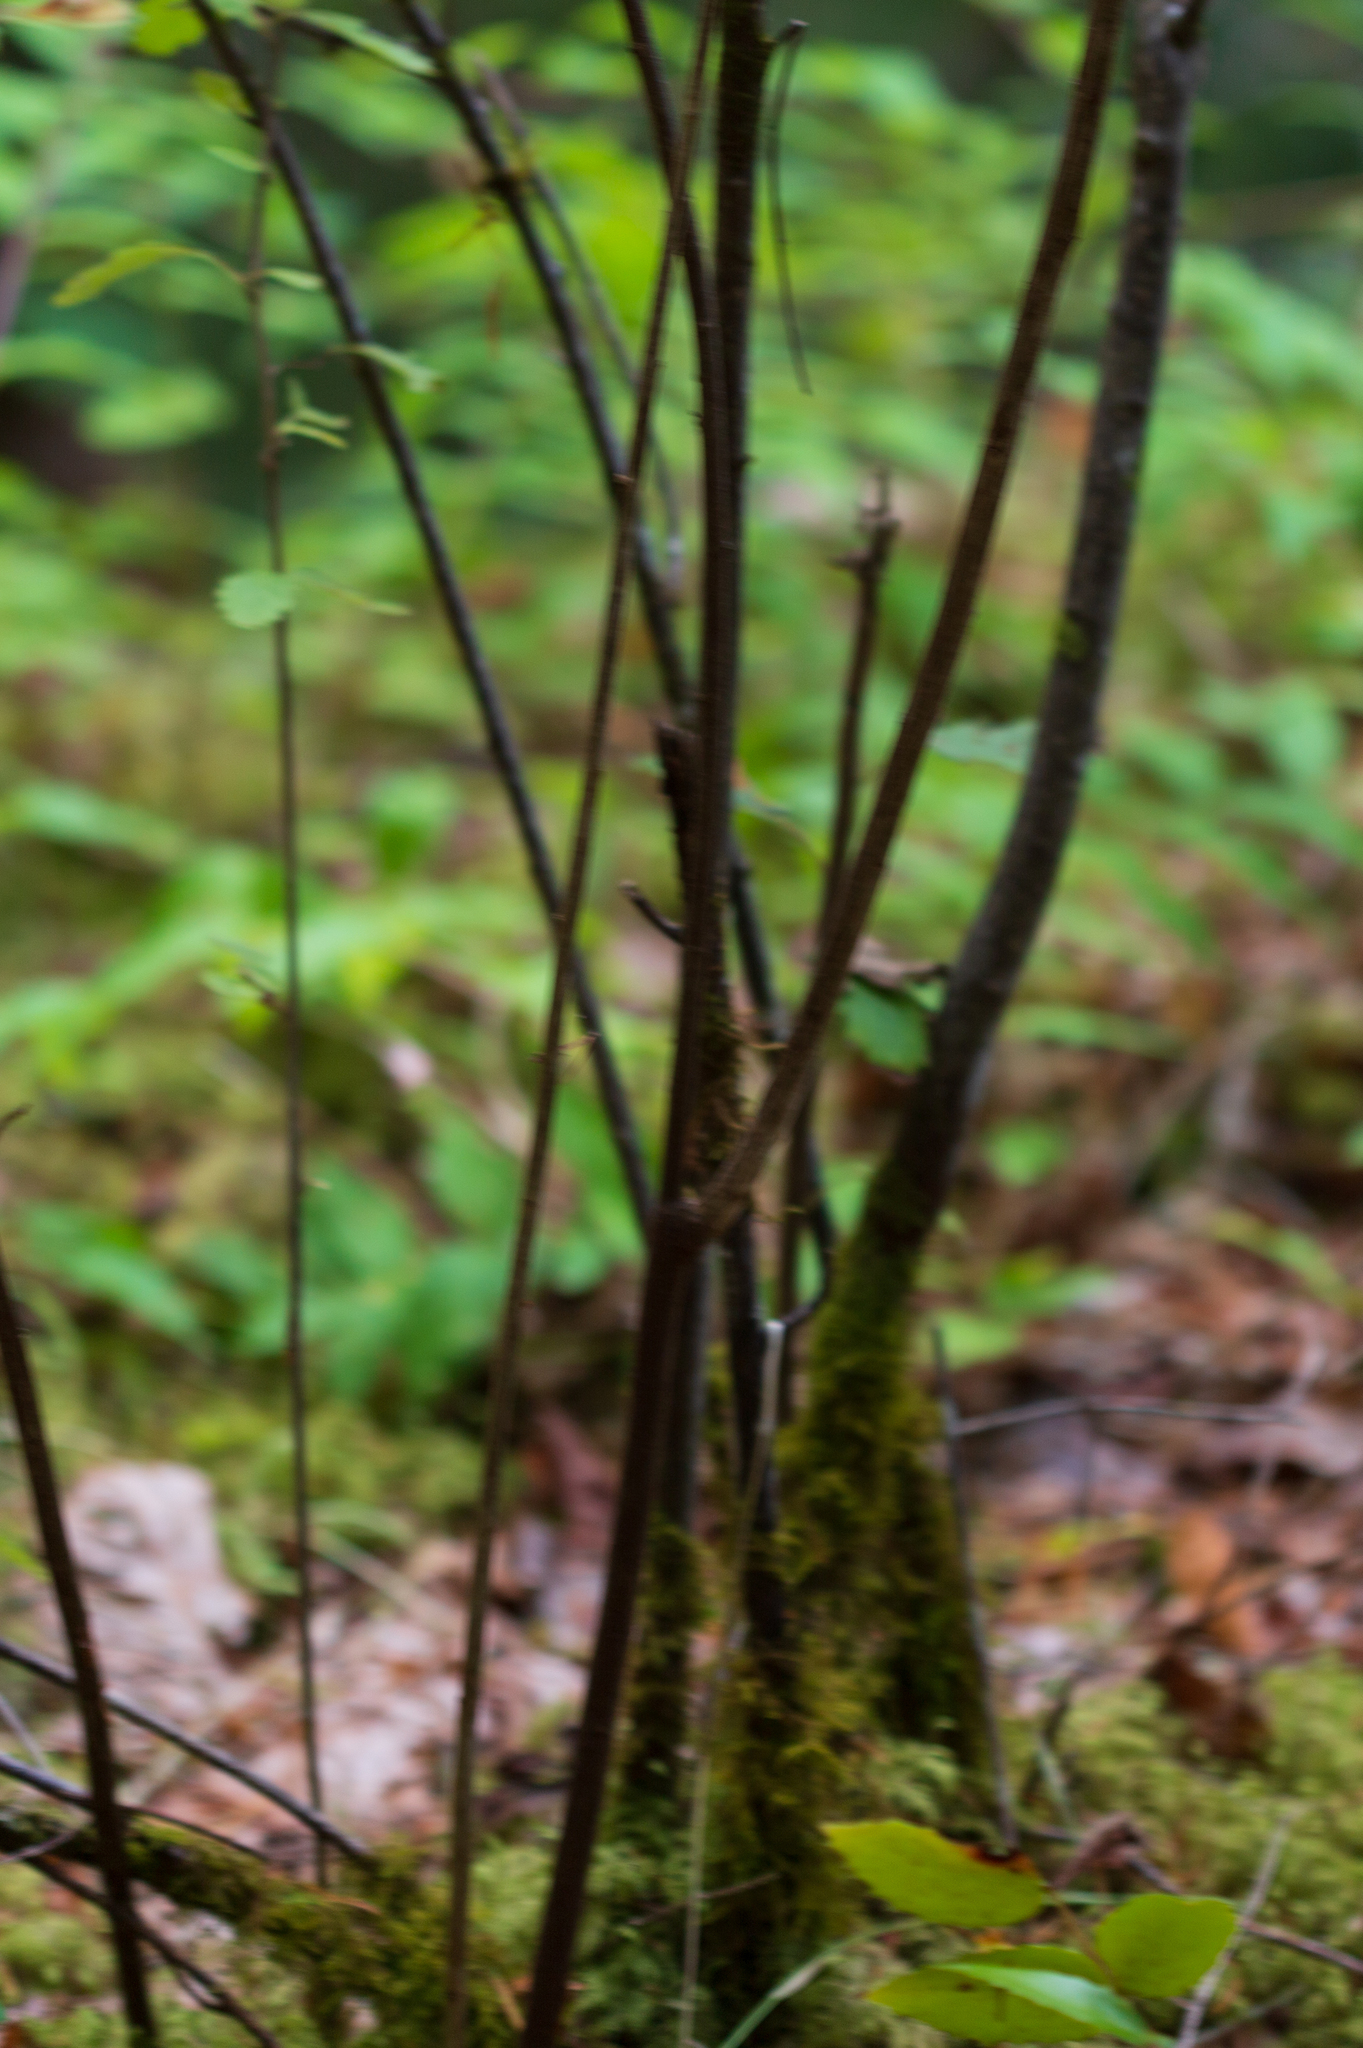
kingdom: Plantae
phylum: Tracheophyta
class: Magnoliopsida
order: Rosales
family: Rosaceae
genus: Holodiscus
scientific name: Holodiscus discolor
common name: Oceanspray
